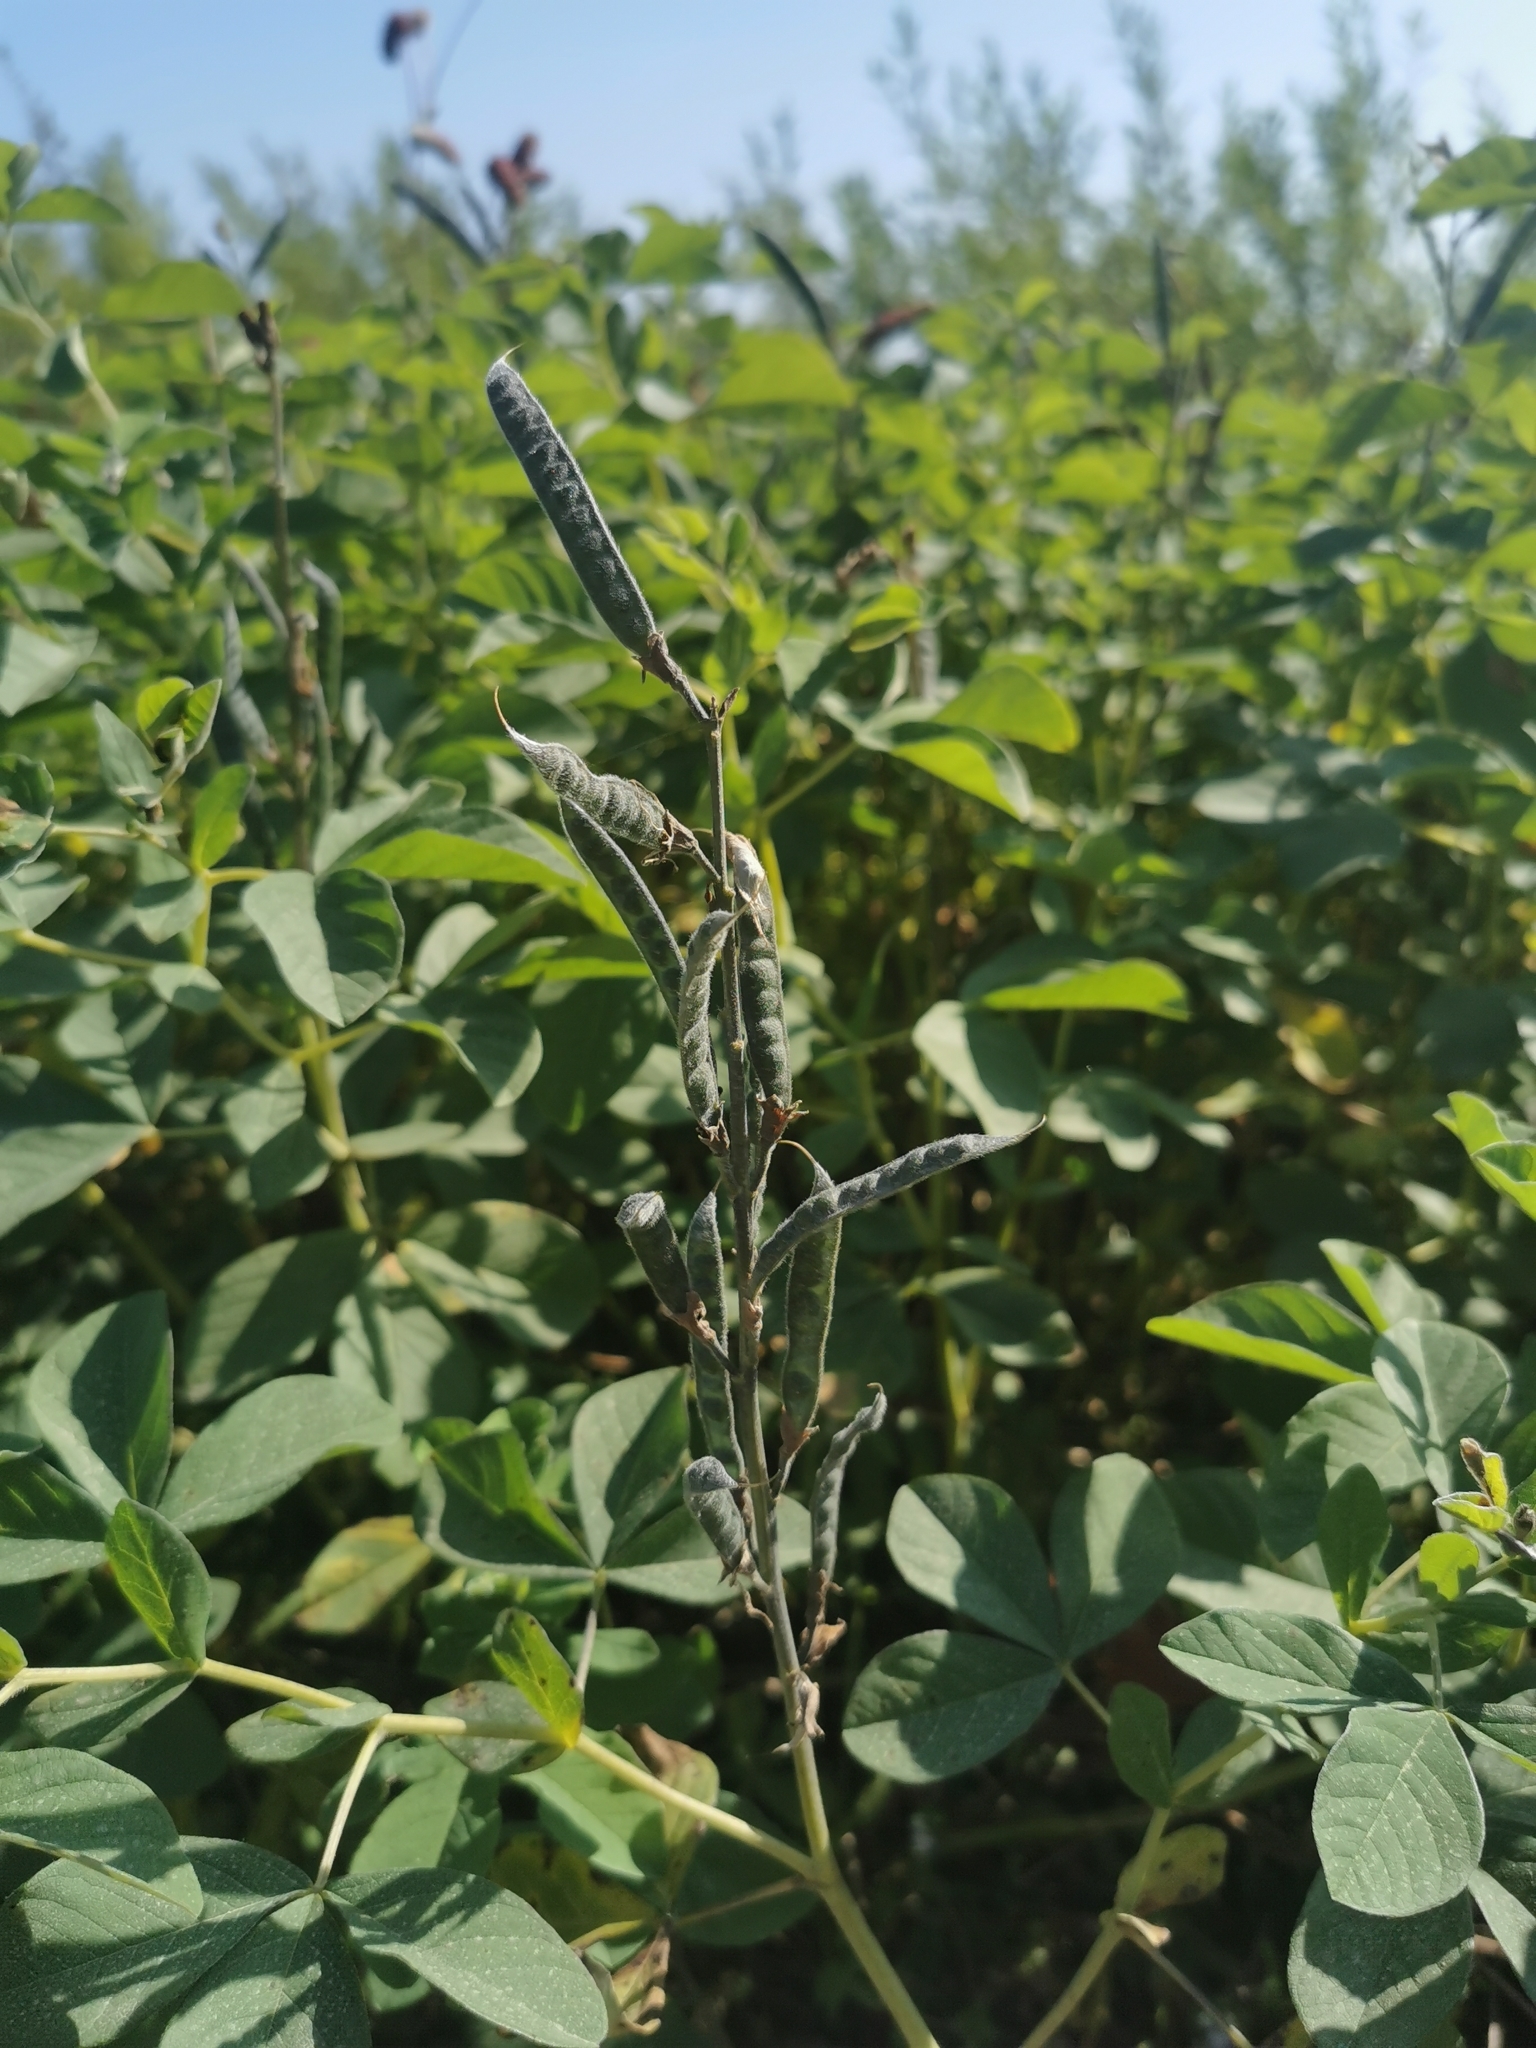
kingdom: Plantae
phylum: Tracheophyta
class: Magnoliopsida
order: Fabales
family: Fabaceae
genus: Thermopsis
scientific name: Thermopsis lanceolata
